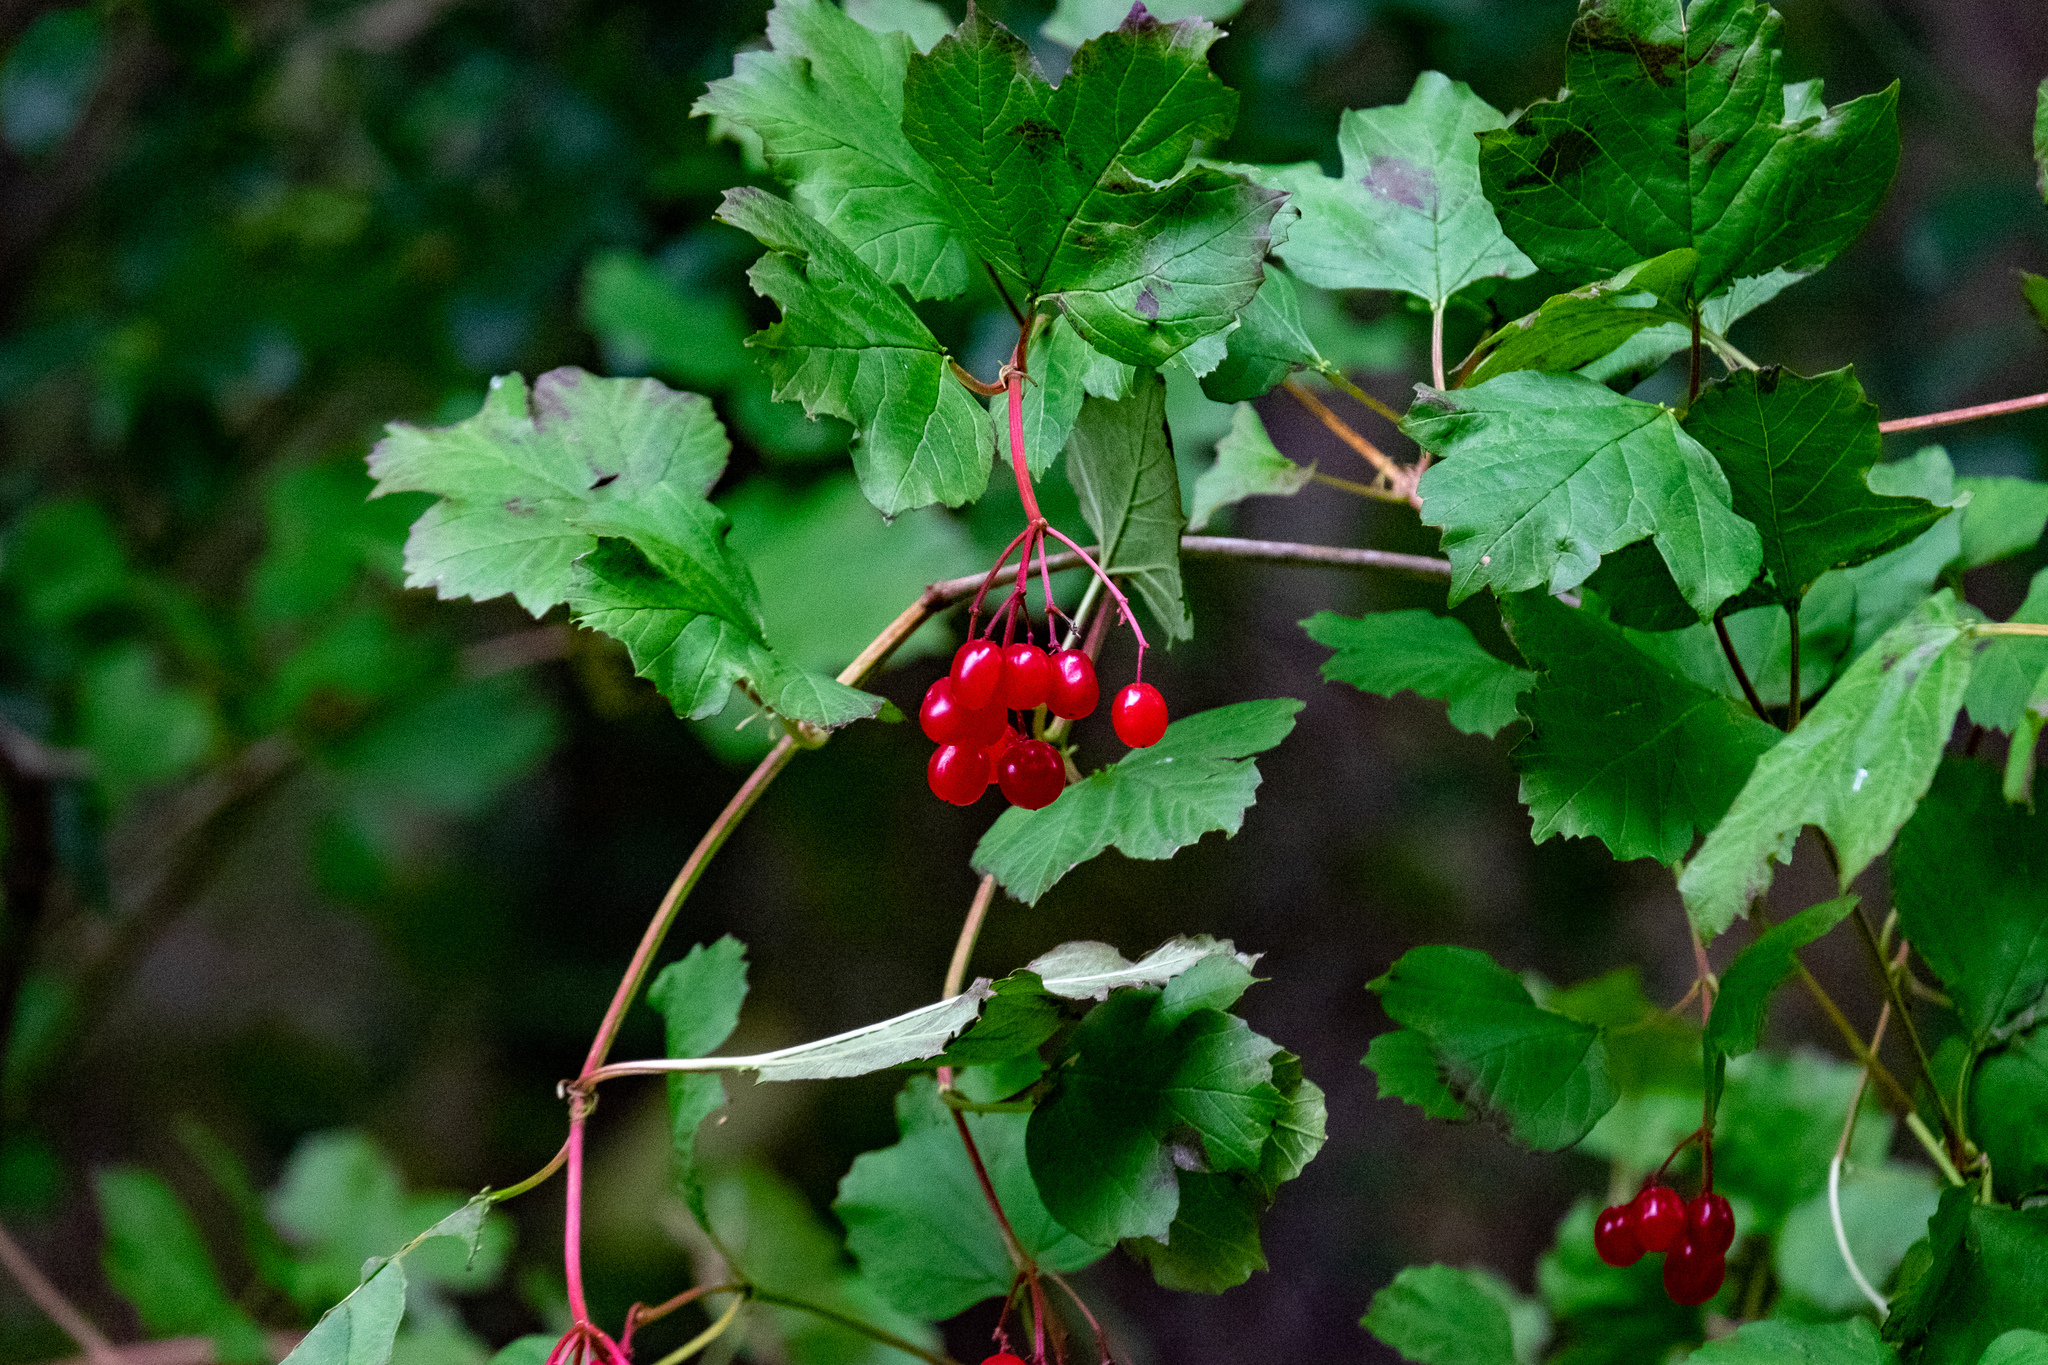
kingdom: Plantae
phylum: Tracheophyta
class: Magnoliopsida
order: Dipsacales
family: Viburnaceae
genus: Viburnum
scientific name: Viburnum opulus
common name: Guelder-rose
